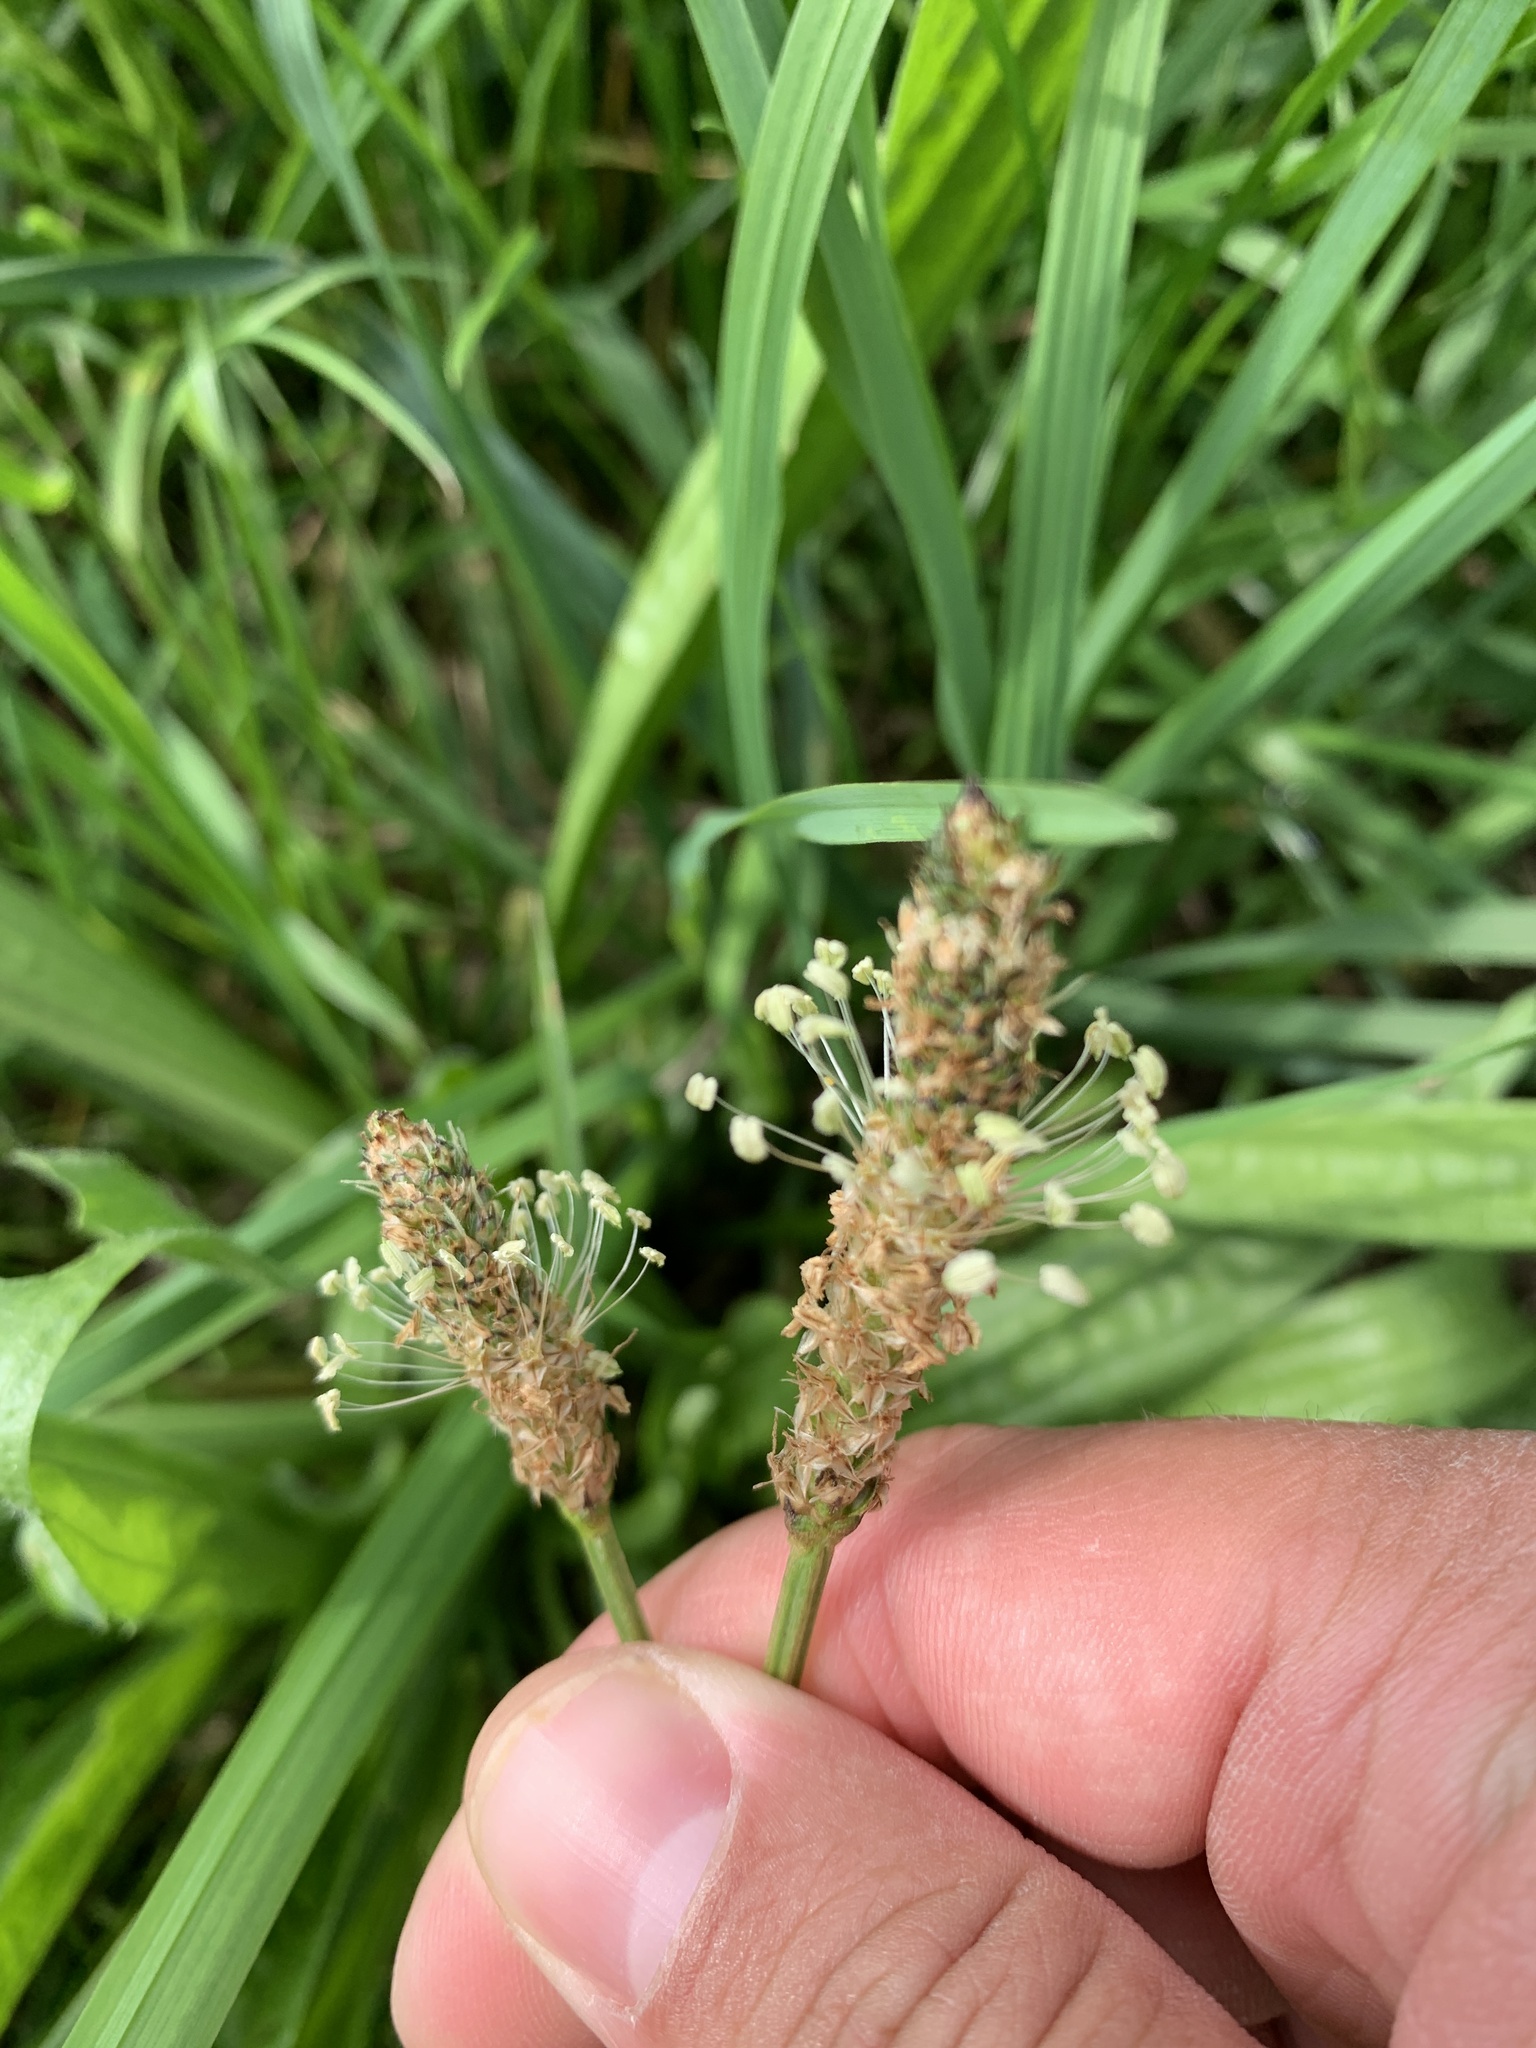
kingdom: Plantae
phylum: Tracheophyta
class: Magnoliopsida
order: Lamiales
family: Plantaginaceae
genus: Plantago
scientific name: Plantago lanceolata
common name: Ribwort plantain
